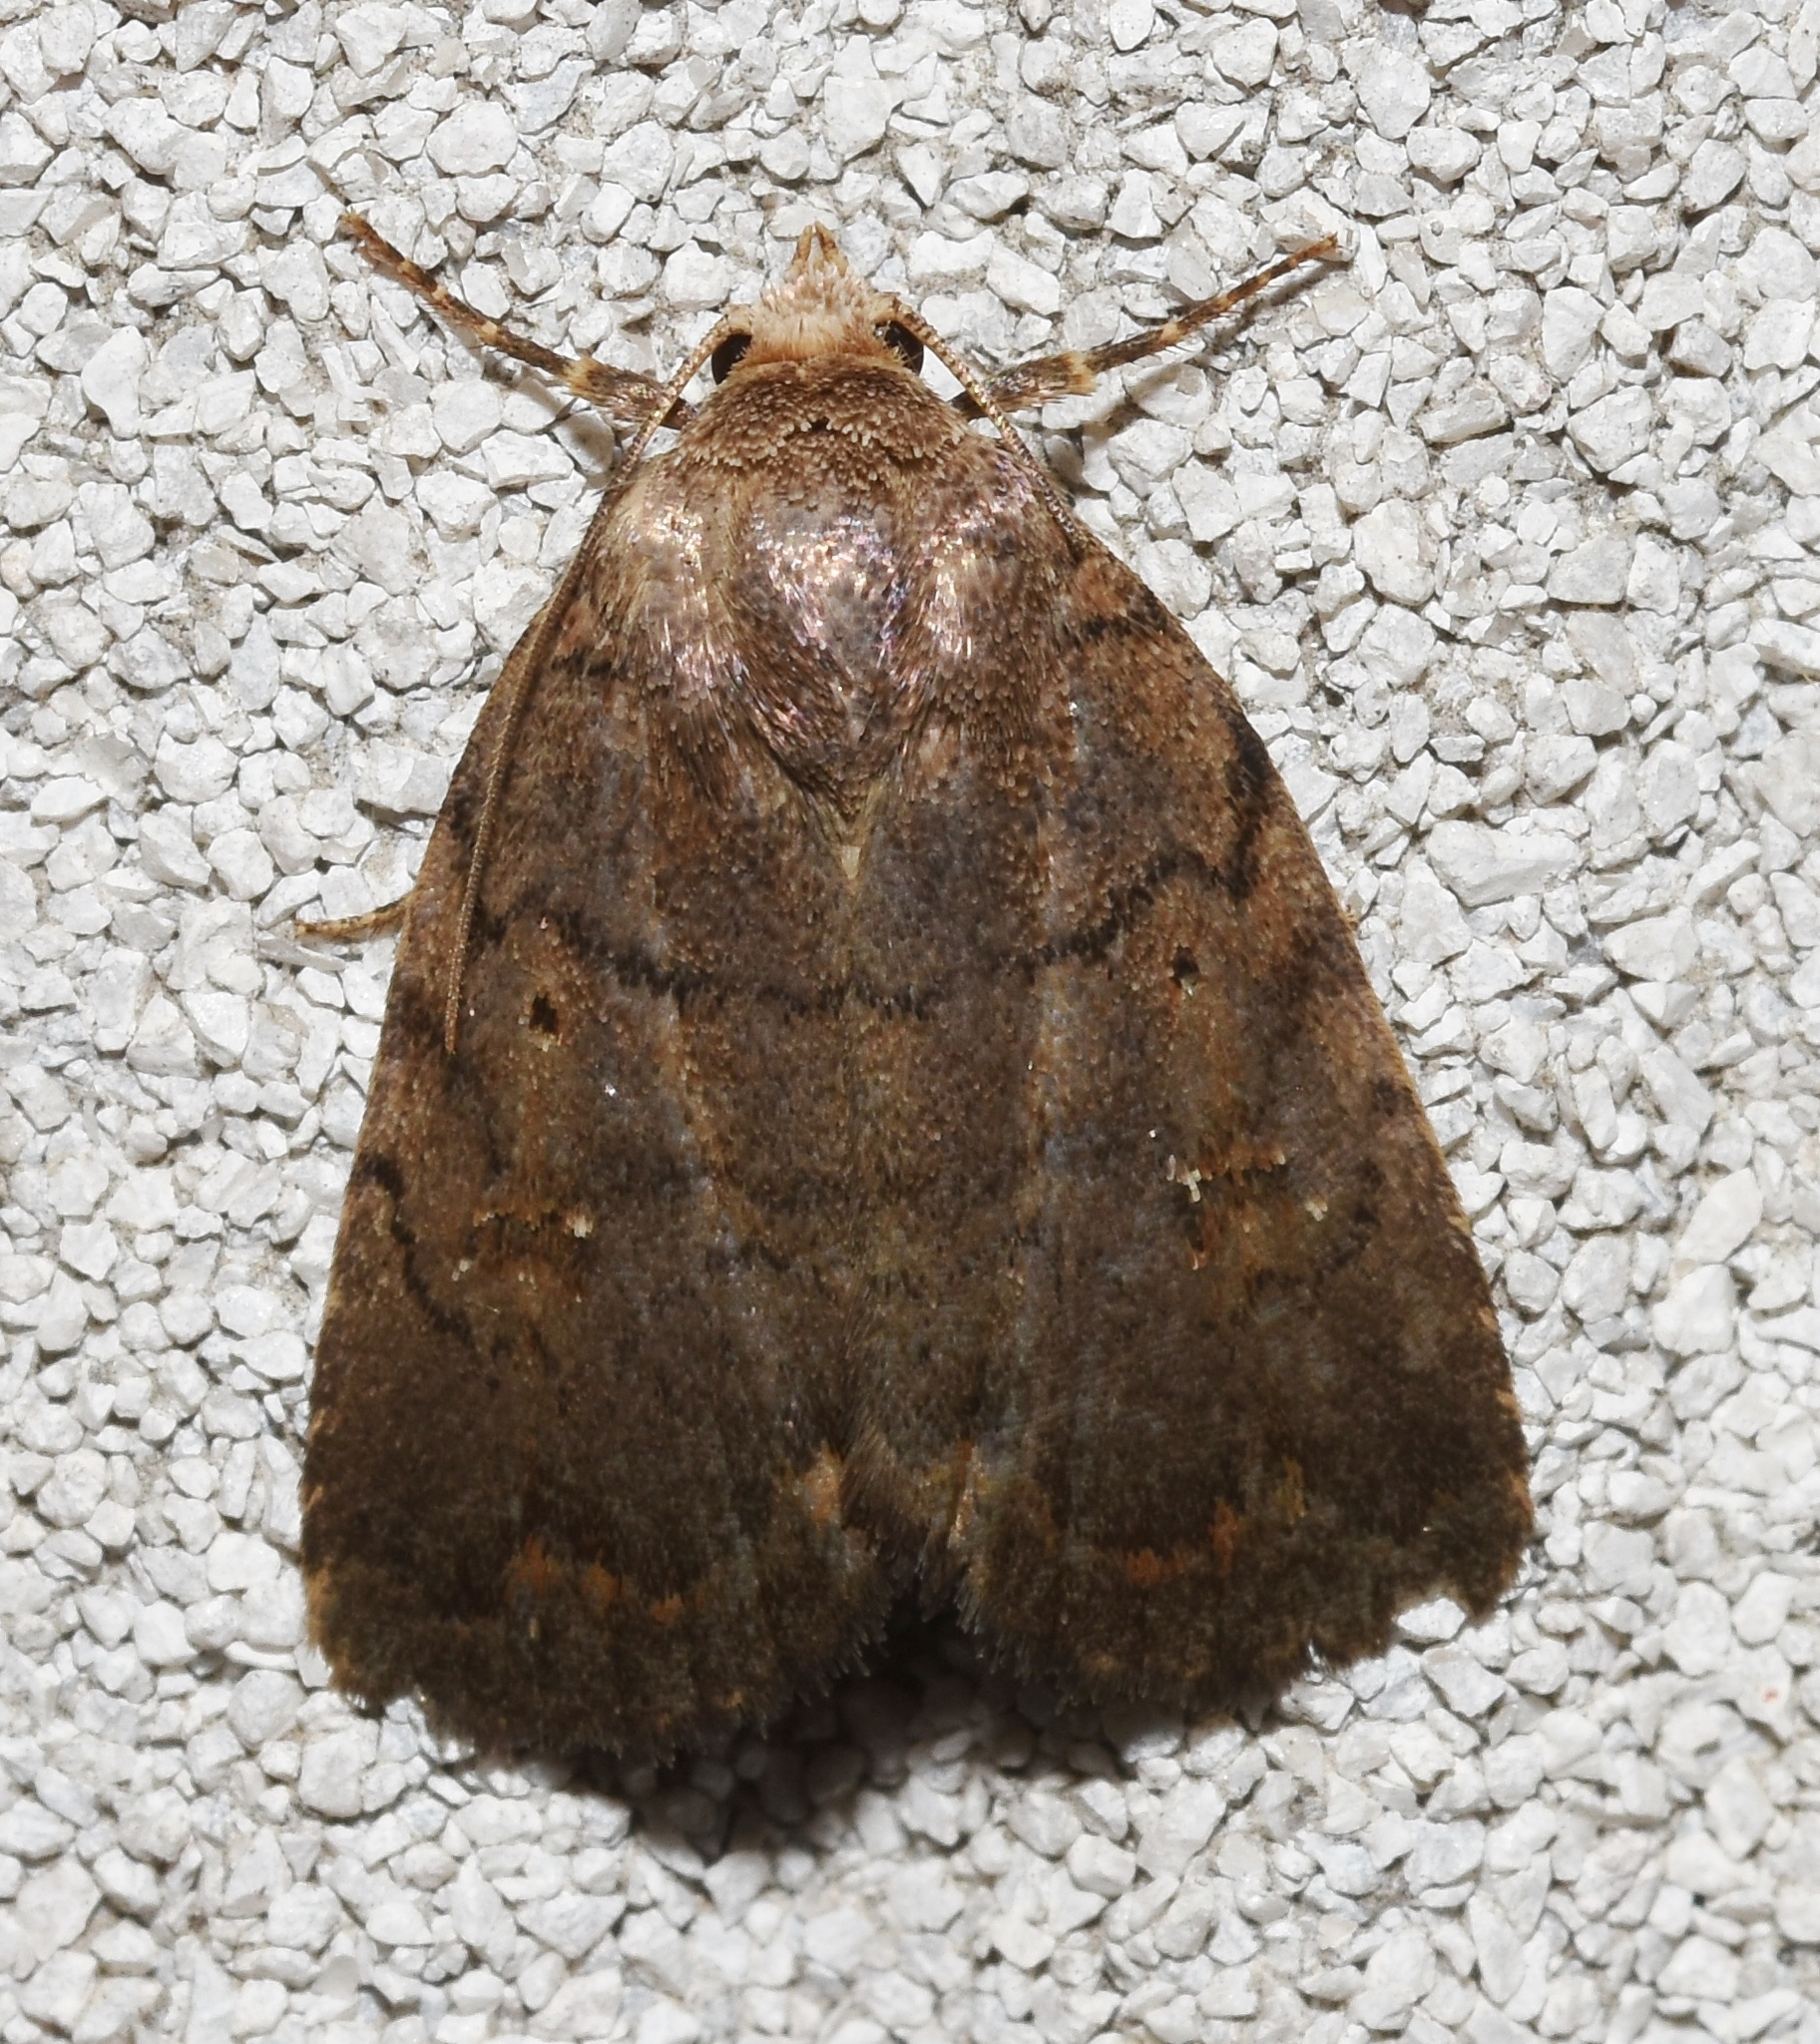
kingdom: Animalia
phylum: Arthropoda
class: Insecta
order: Lepidoptera
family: Noctuidae
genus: Athetis
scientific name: Athetis tarda
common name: Slowpoke moth
